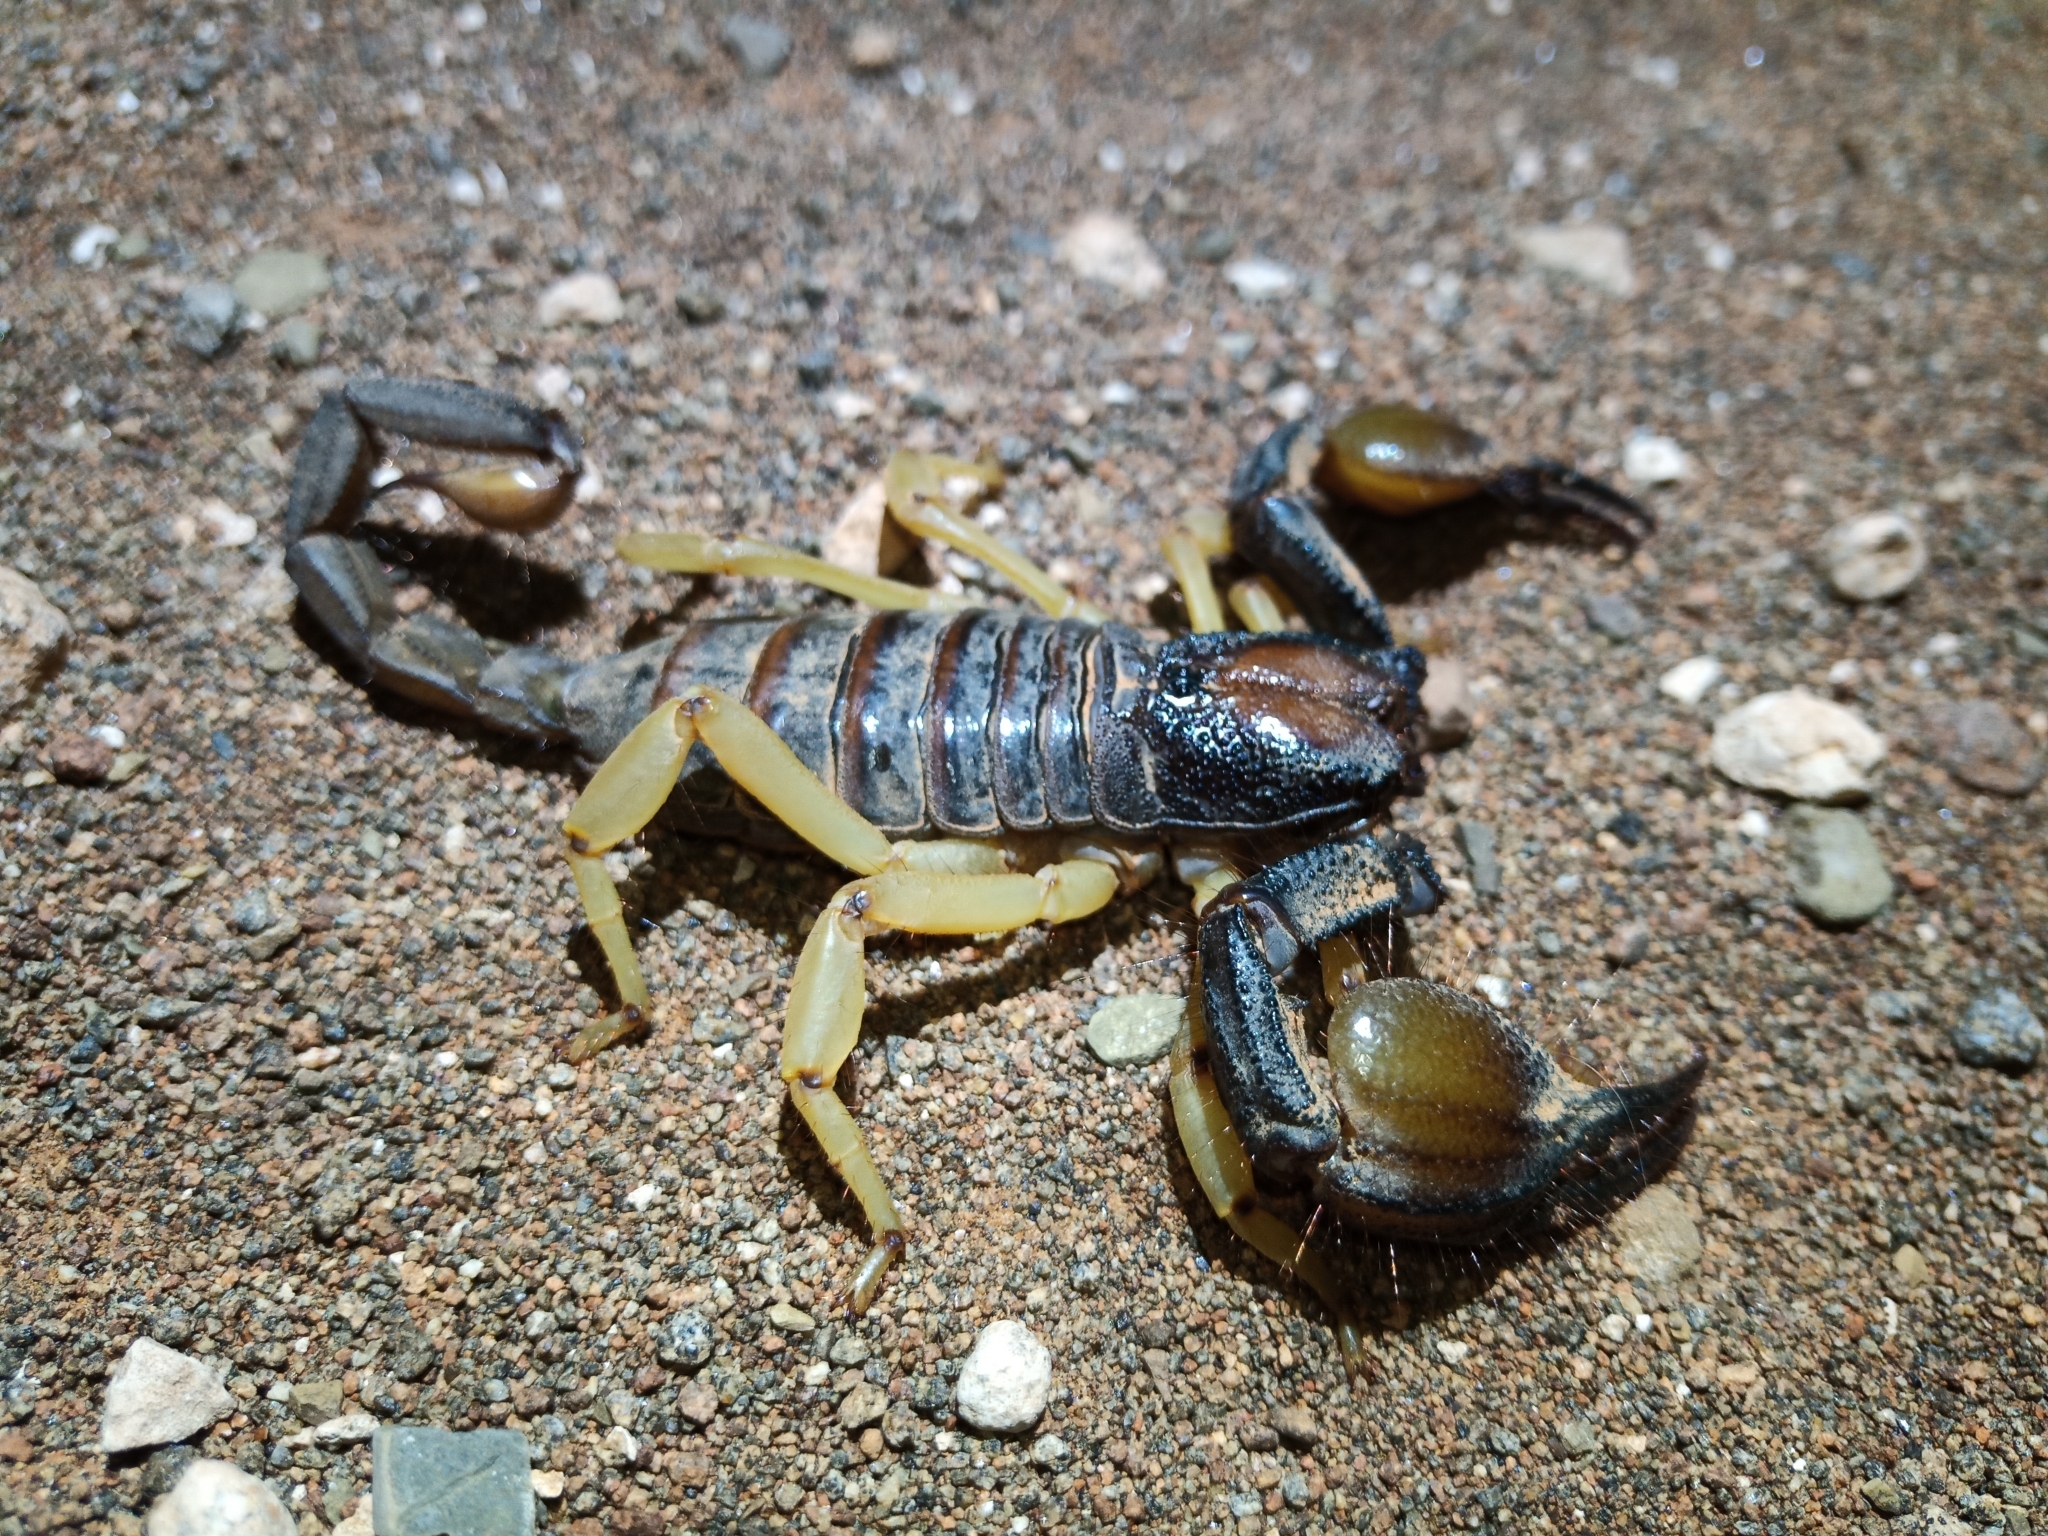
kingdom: Animalia
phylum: Arthropoda
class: Arachnida
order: Scorpiones
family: Scorpionidae
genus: Opistophthalmus
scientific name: Opistophthalmus pallipes
